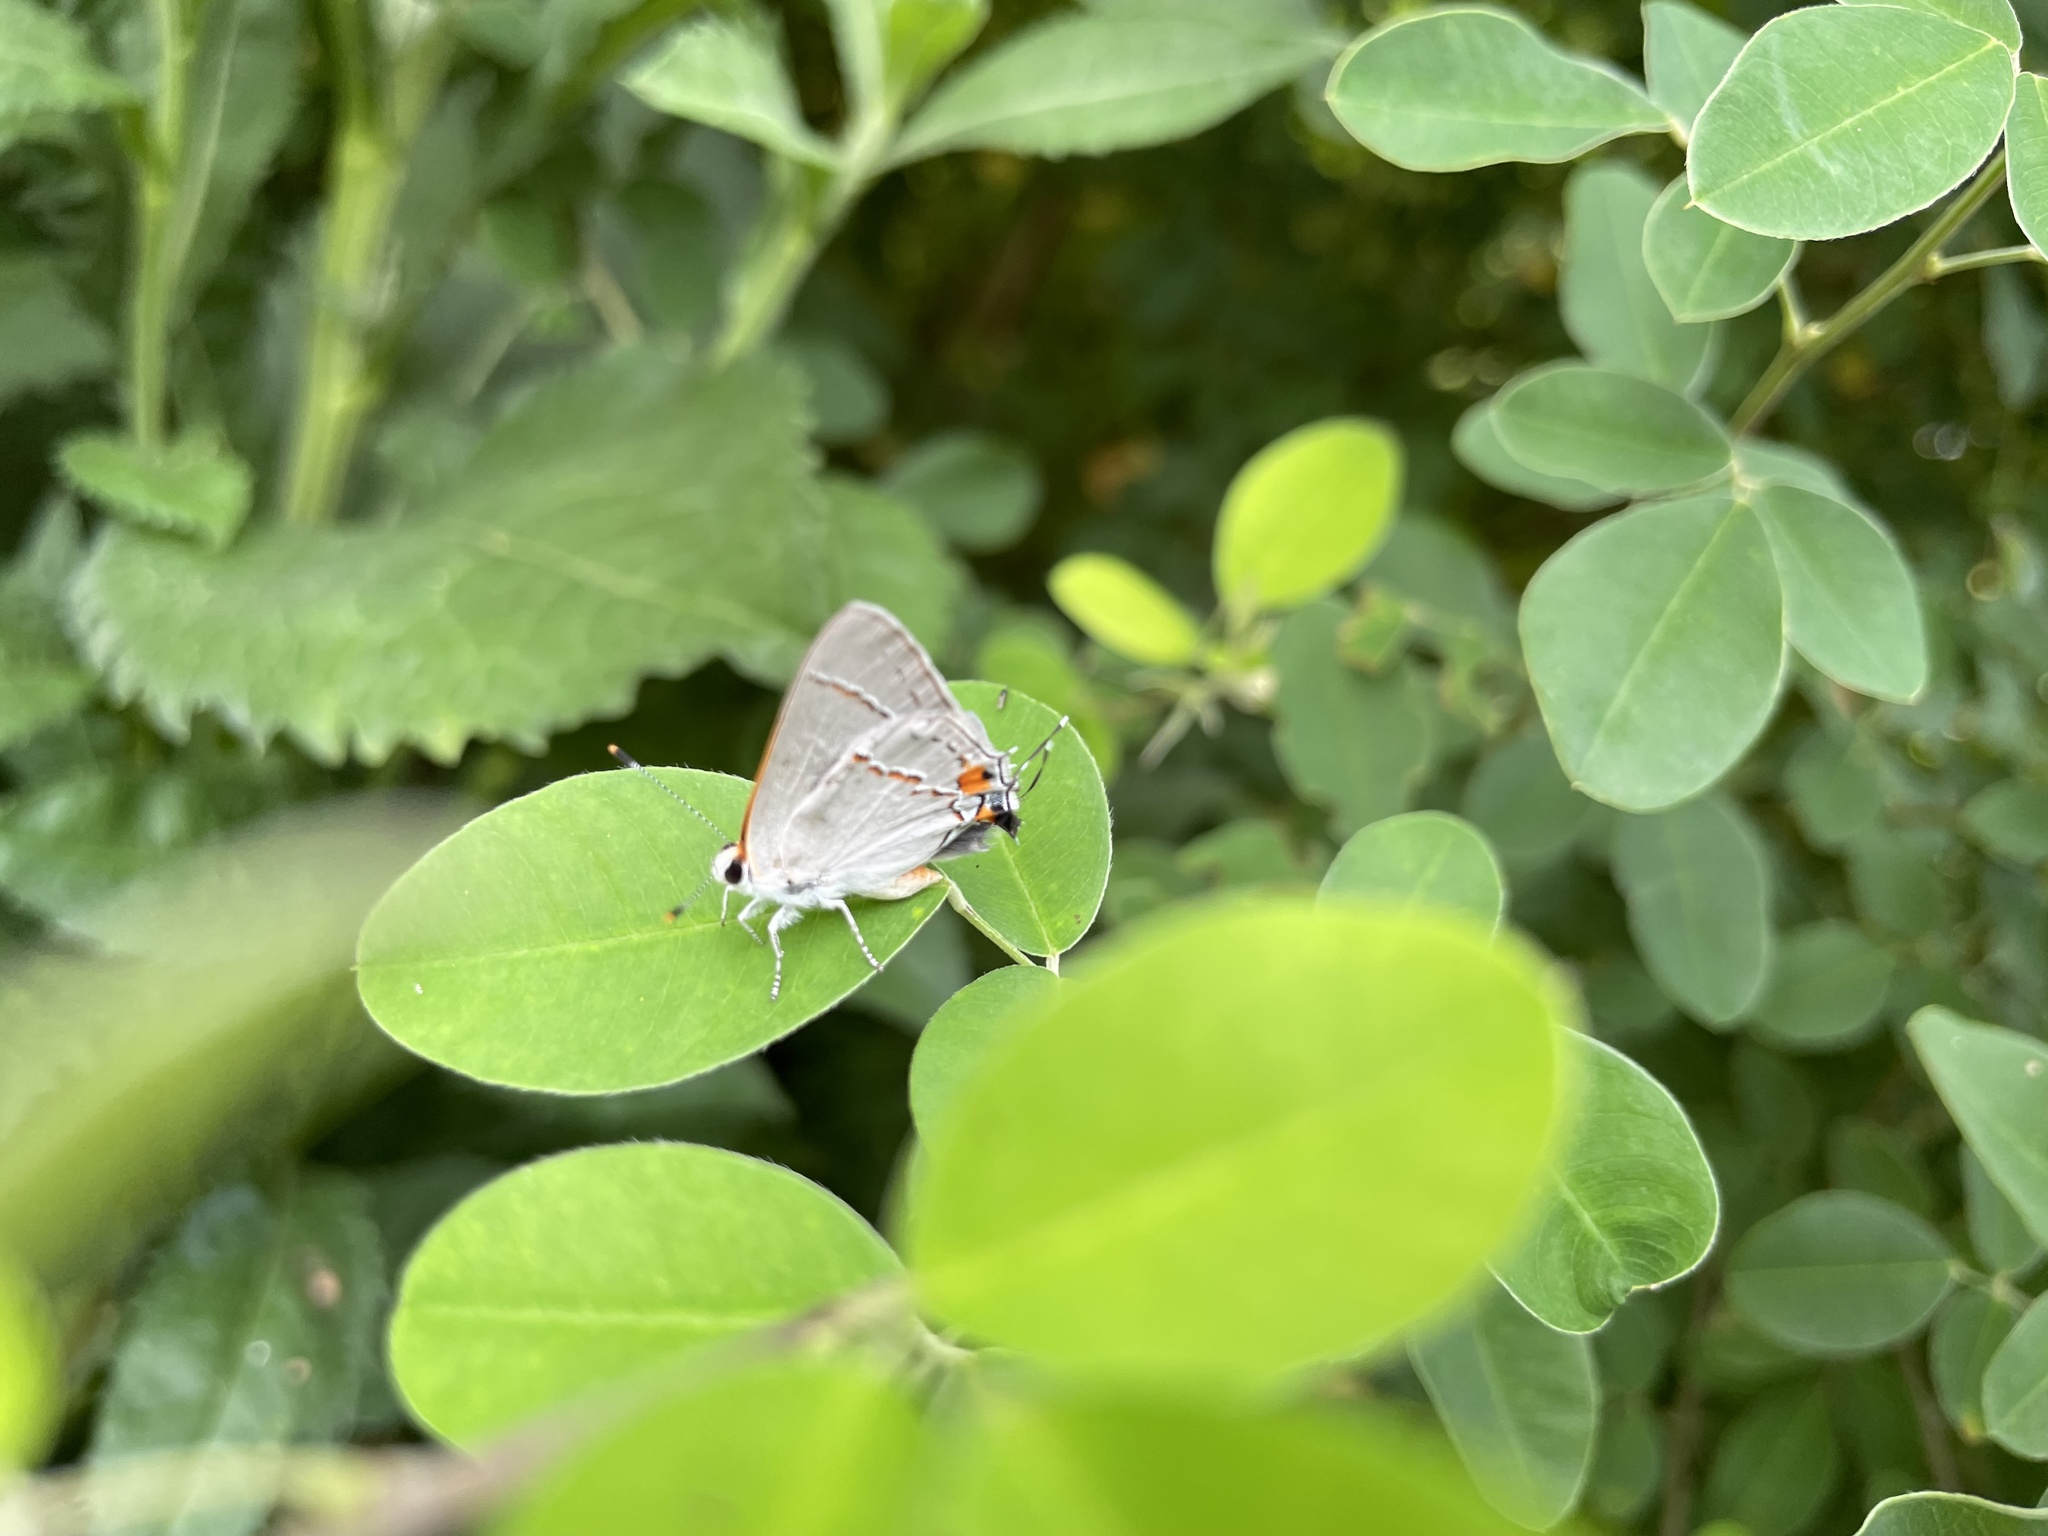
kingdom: Animalia
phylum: Arthropoda
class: Insecta
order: Lepidoptera
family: Lycaenidae
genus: Strymon
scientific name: Strymon melinus
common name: Gray hairstreak
